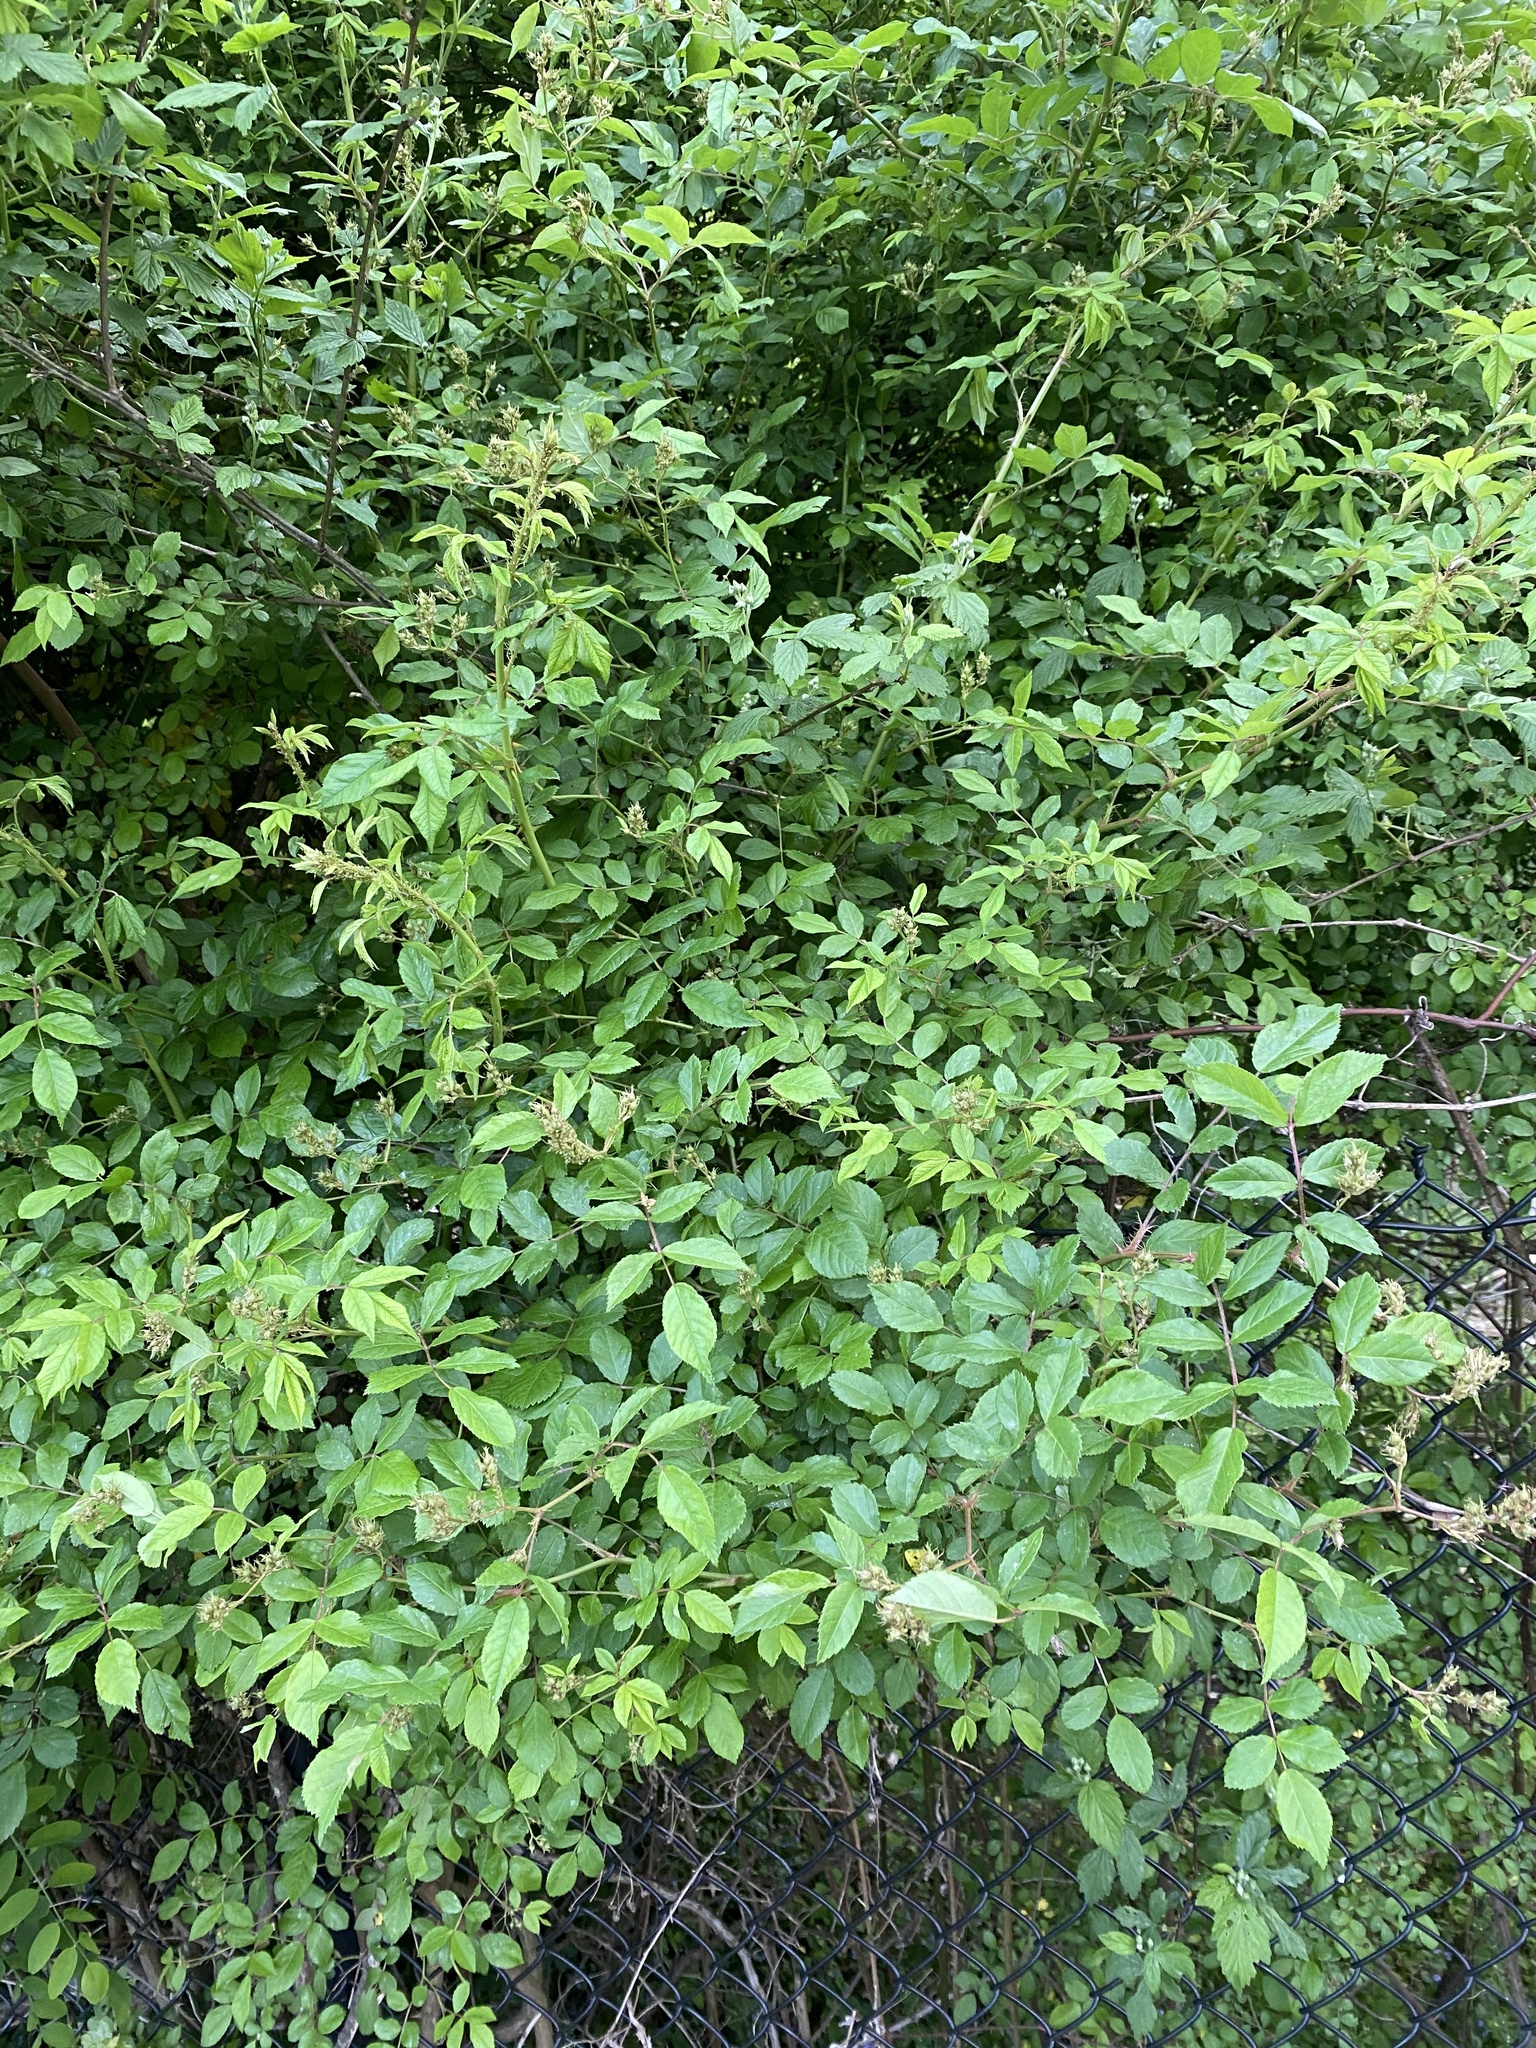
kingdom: Plantae
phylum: Tracheophyta
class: Magnoliopsida
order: Rosales
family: Rosaceae
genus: Rosa
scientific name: Rosa multiflora
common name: Multiflora rose
